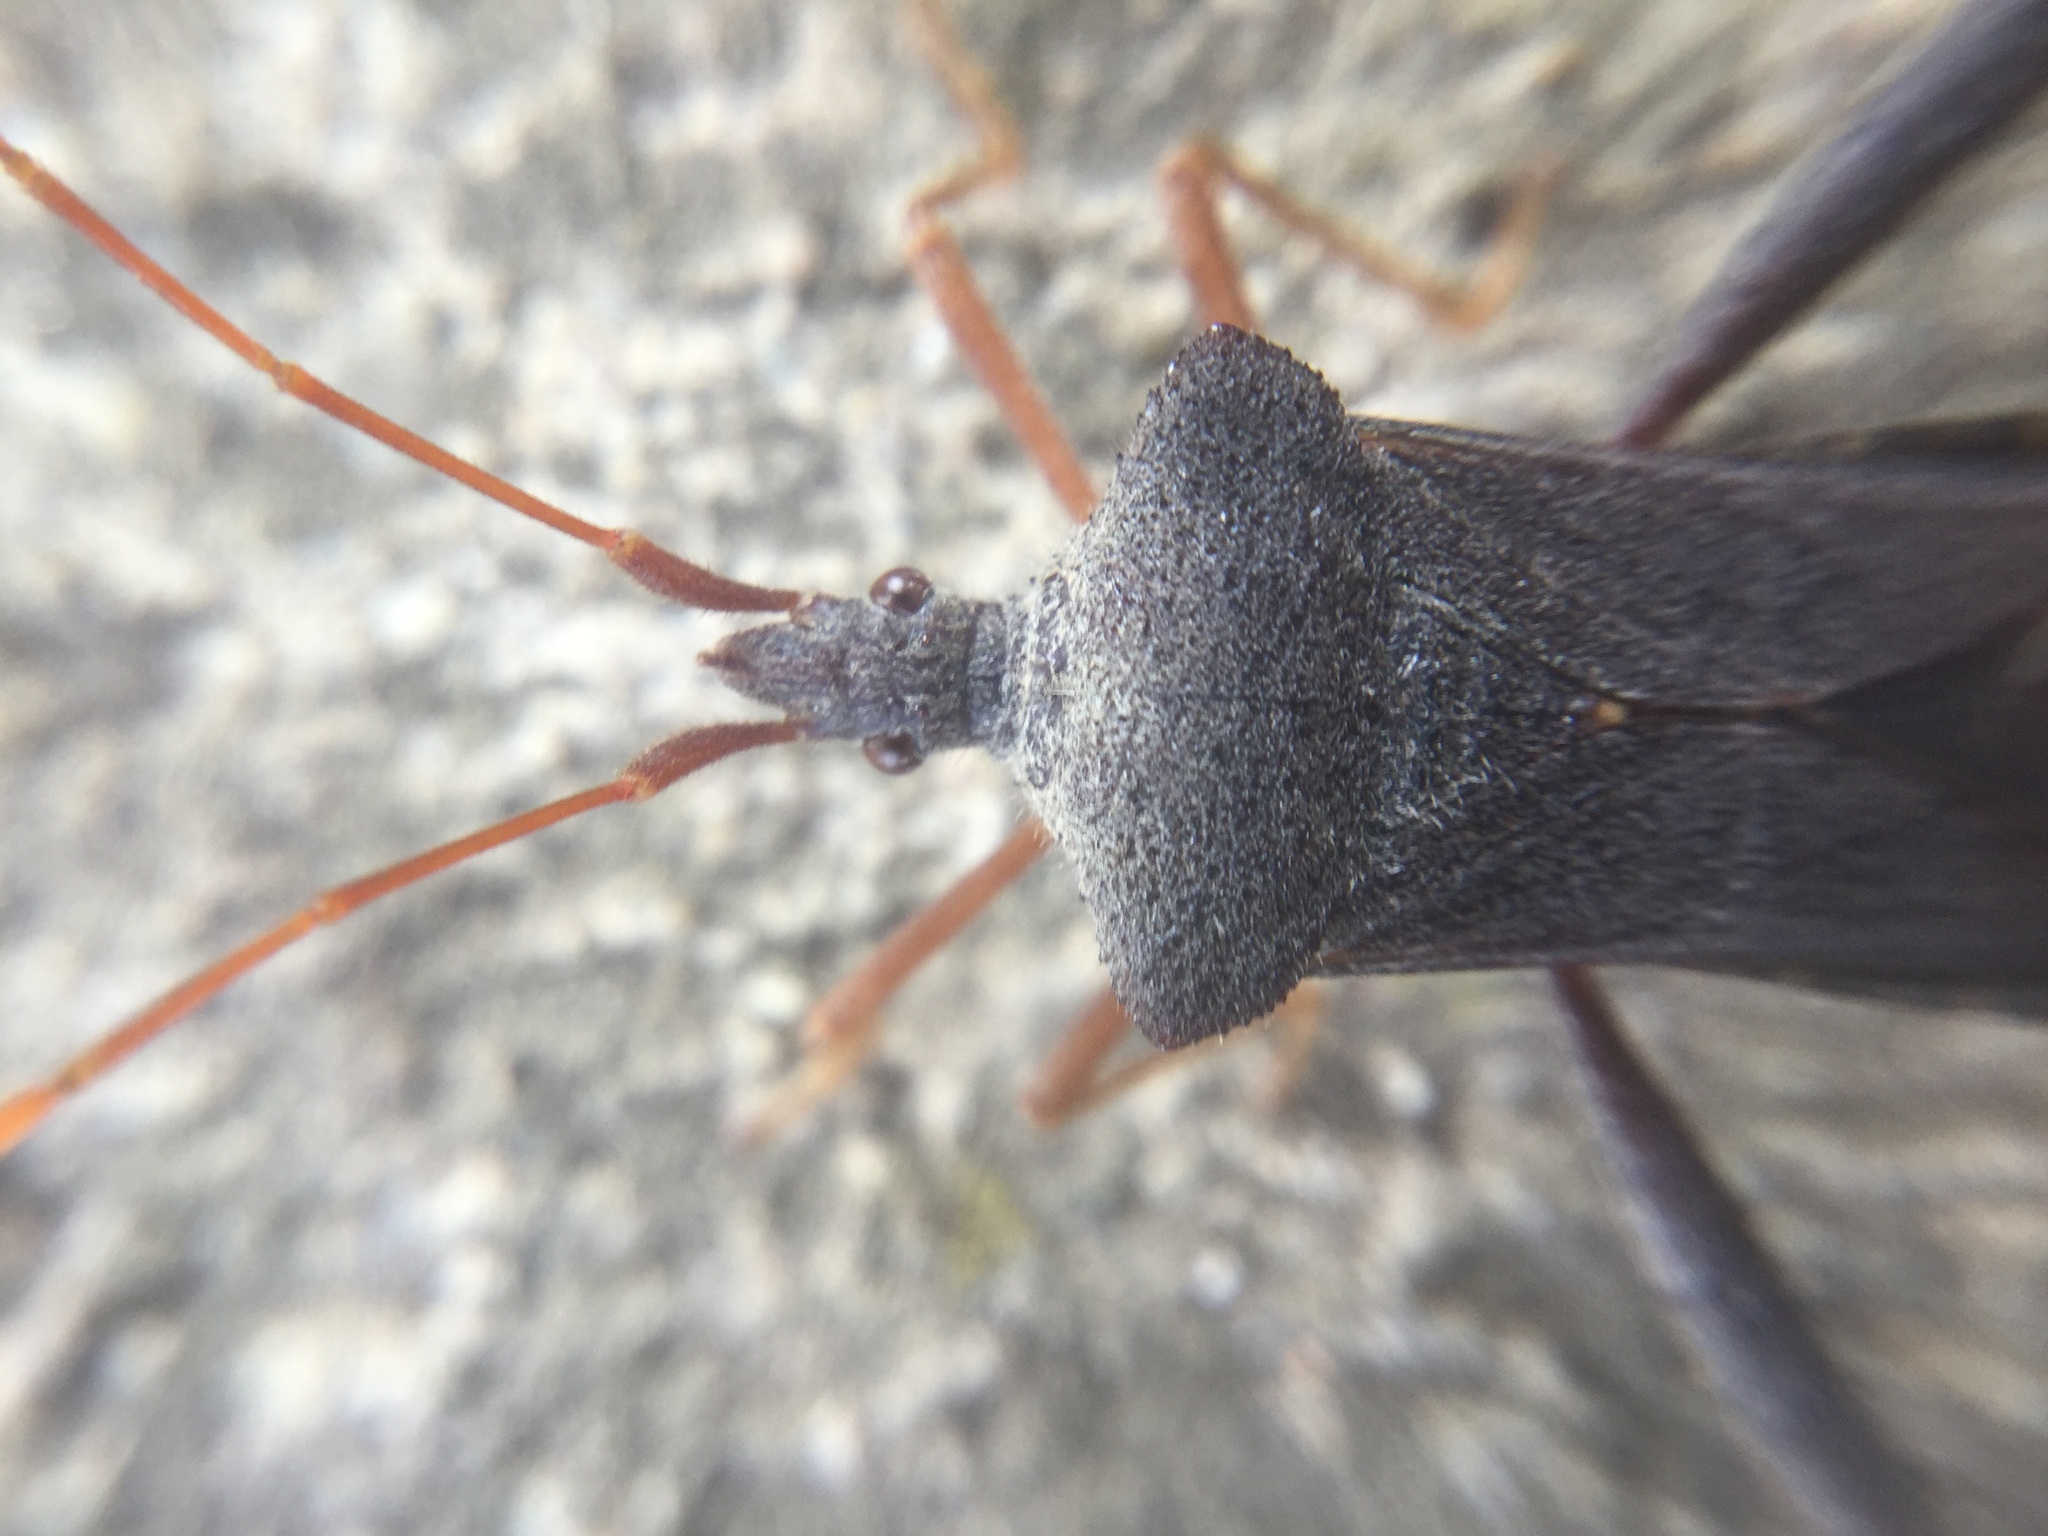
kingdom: Animalia
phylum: Arthropoda
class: Insecta
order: Hemiptera
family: Coreidae
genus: Leptoglossus
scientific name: Leptoglossus fulvicornis
